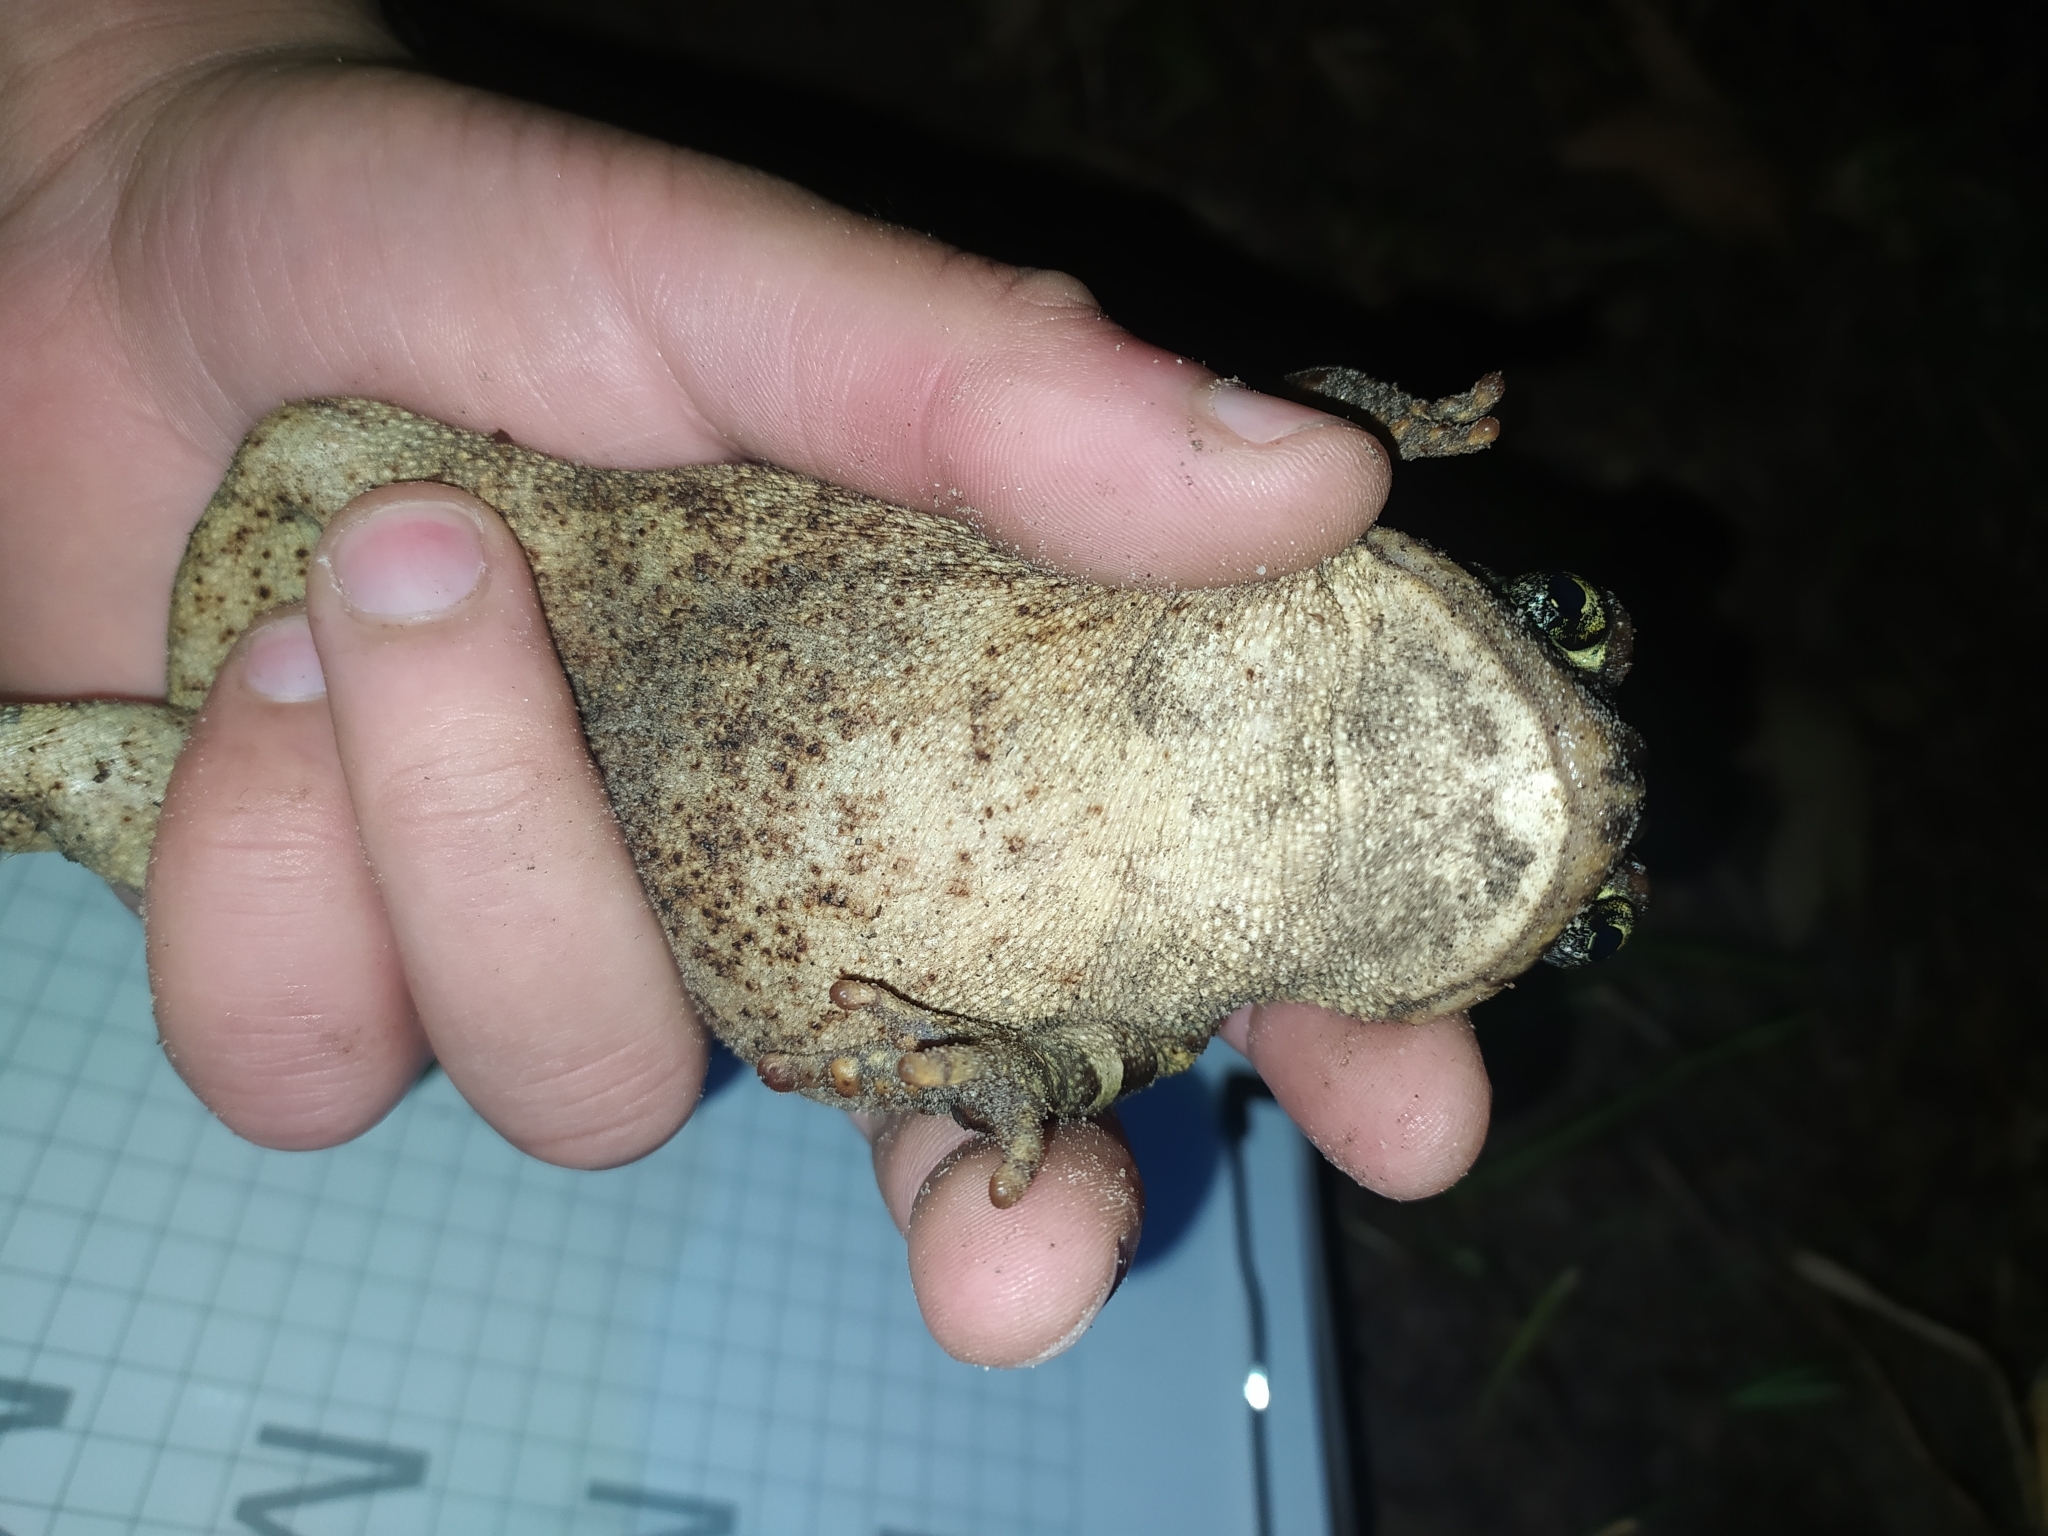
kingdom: Animalia
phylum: Chordata
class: Amphibia
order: Anura
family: Bufonidae
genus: Sclerophrys
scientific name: Sclerophrys pantherina
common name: Panther toad
